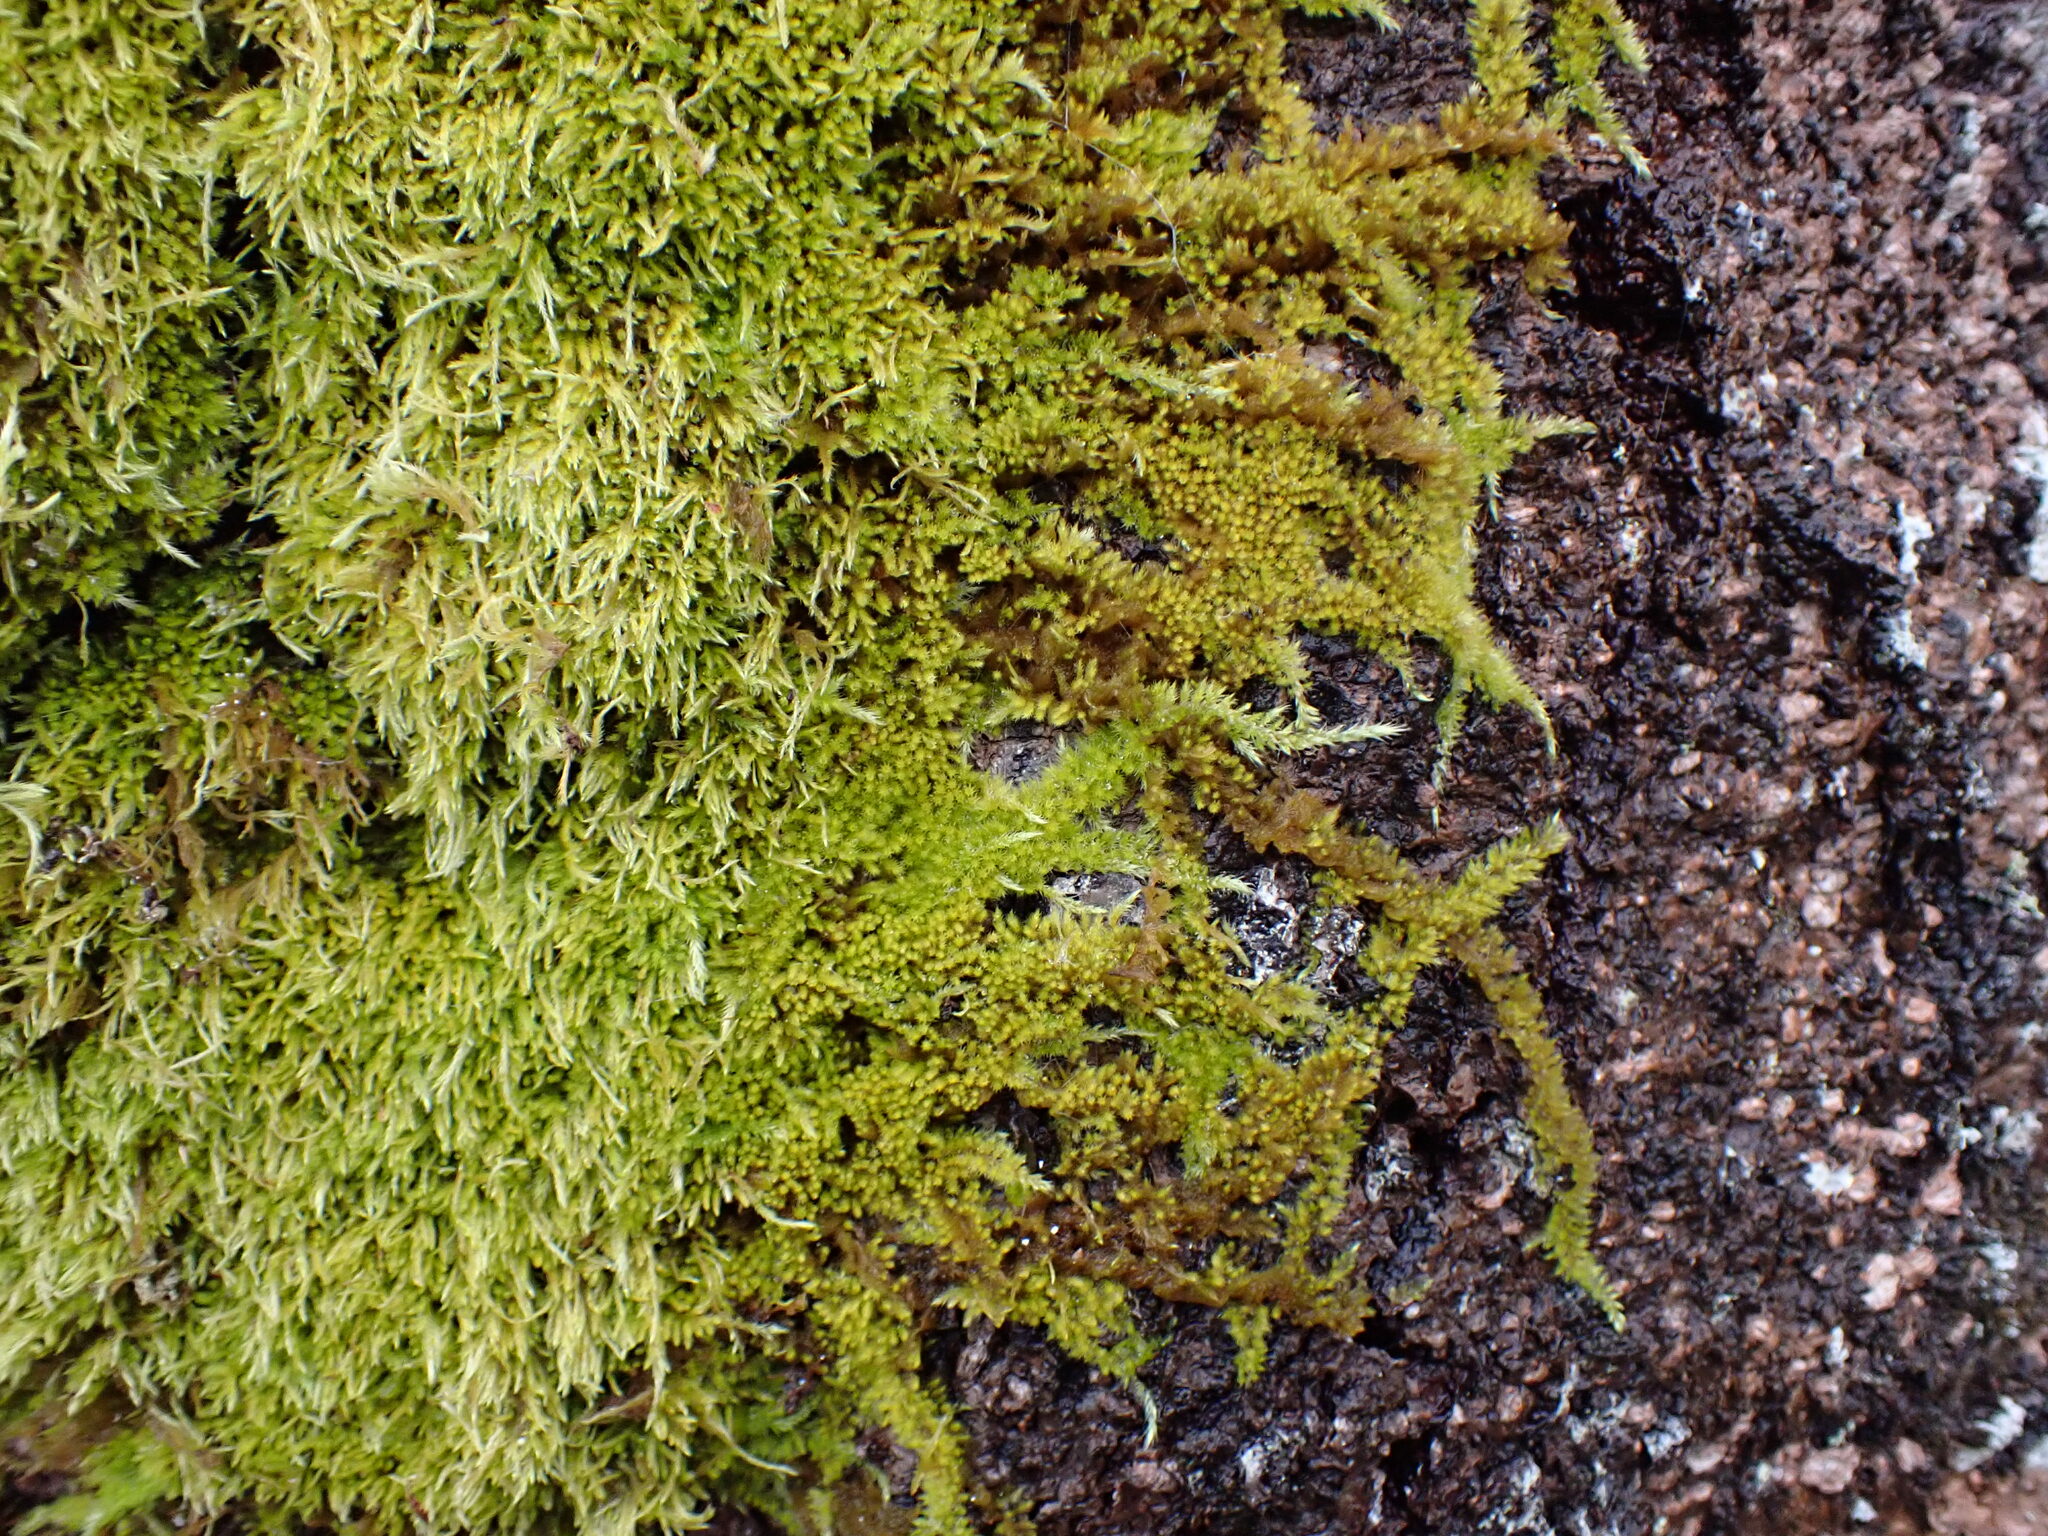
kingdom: Plantae
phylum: Bryophyta
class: Bryopsida
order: Hypnales
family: Brachytheciaceae
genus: Homalothecium
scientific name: Homalothecium nuttallii
